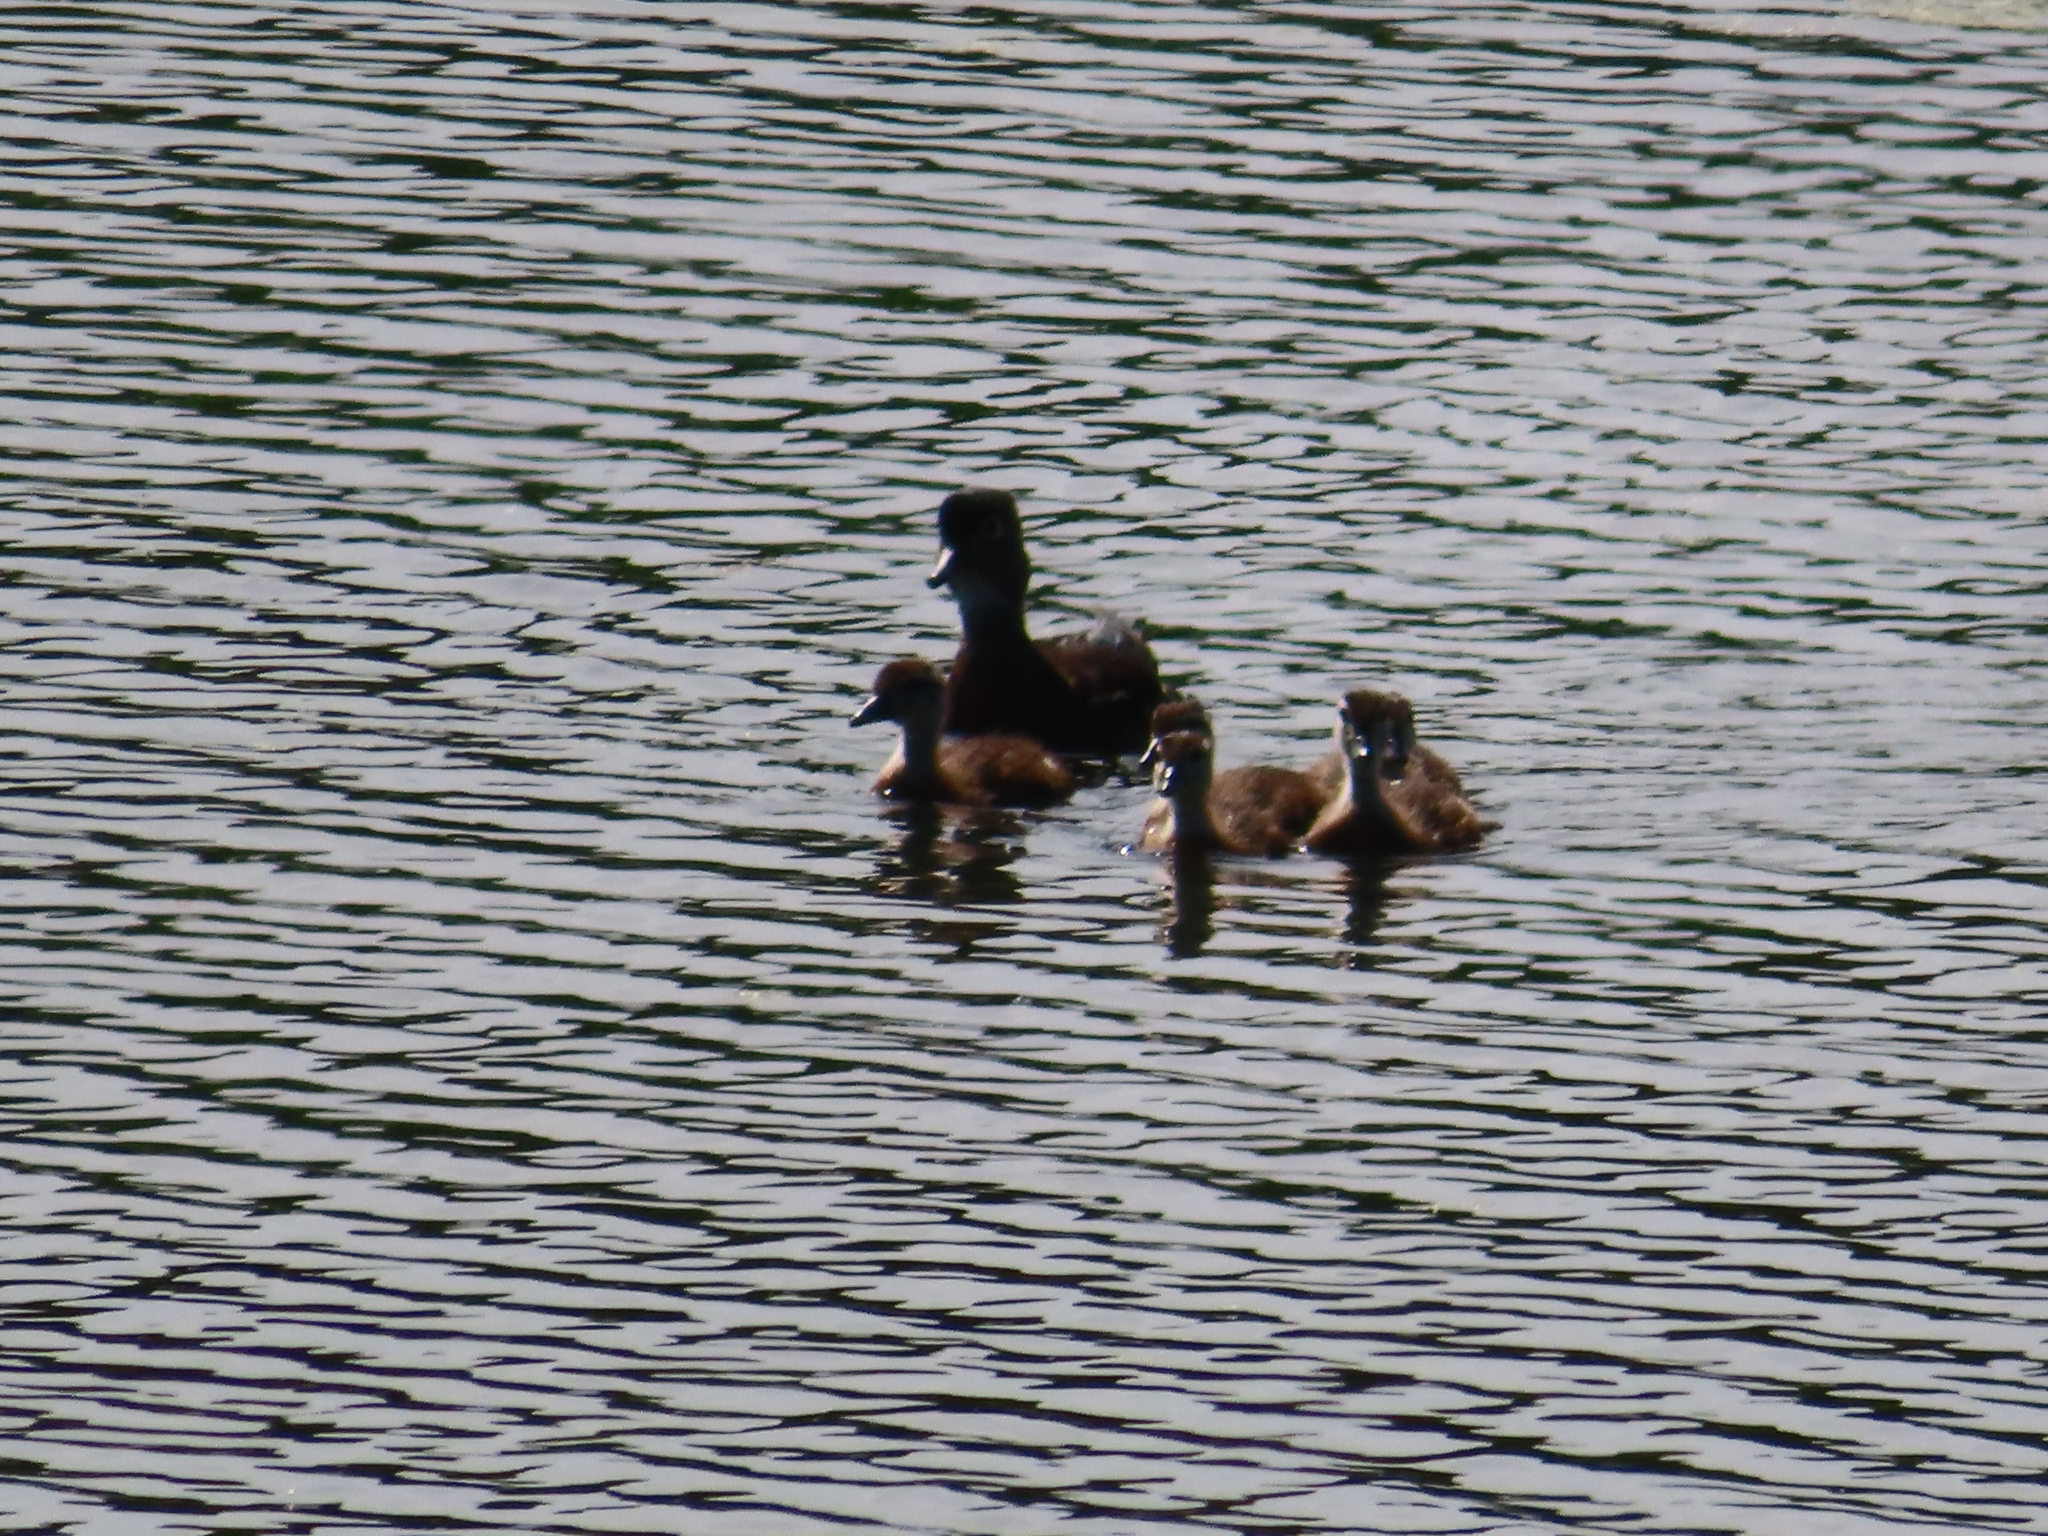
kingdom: Animalia
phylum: Chordata
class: Aves
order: Anseriformes
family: Anatidae
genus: Aix
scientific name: Aix sponsa
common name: Wood duck
